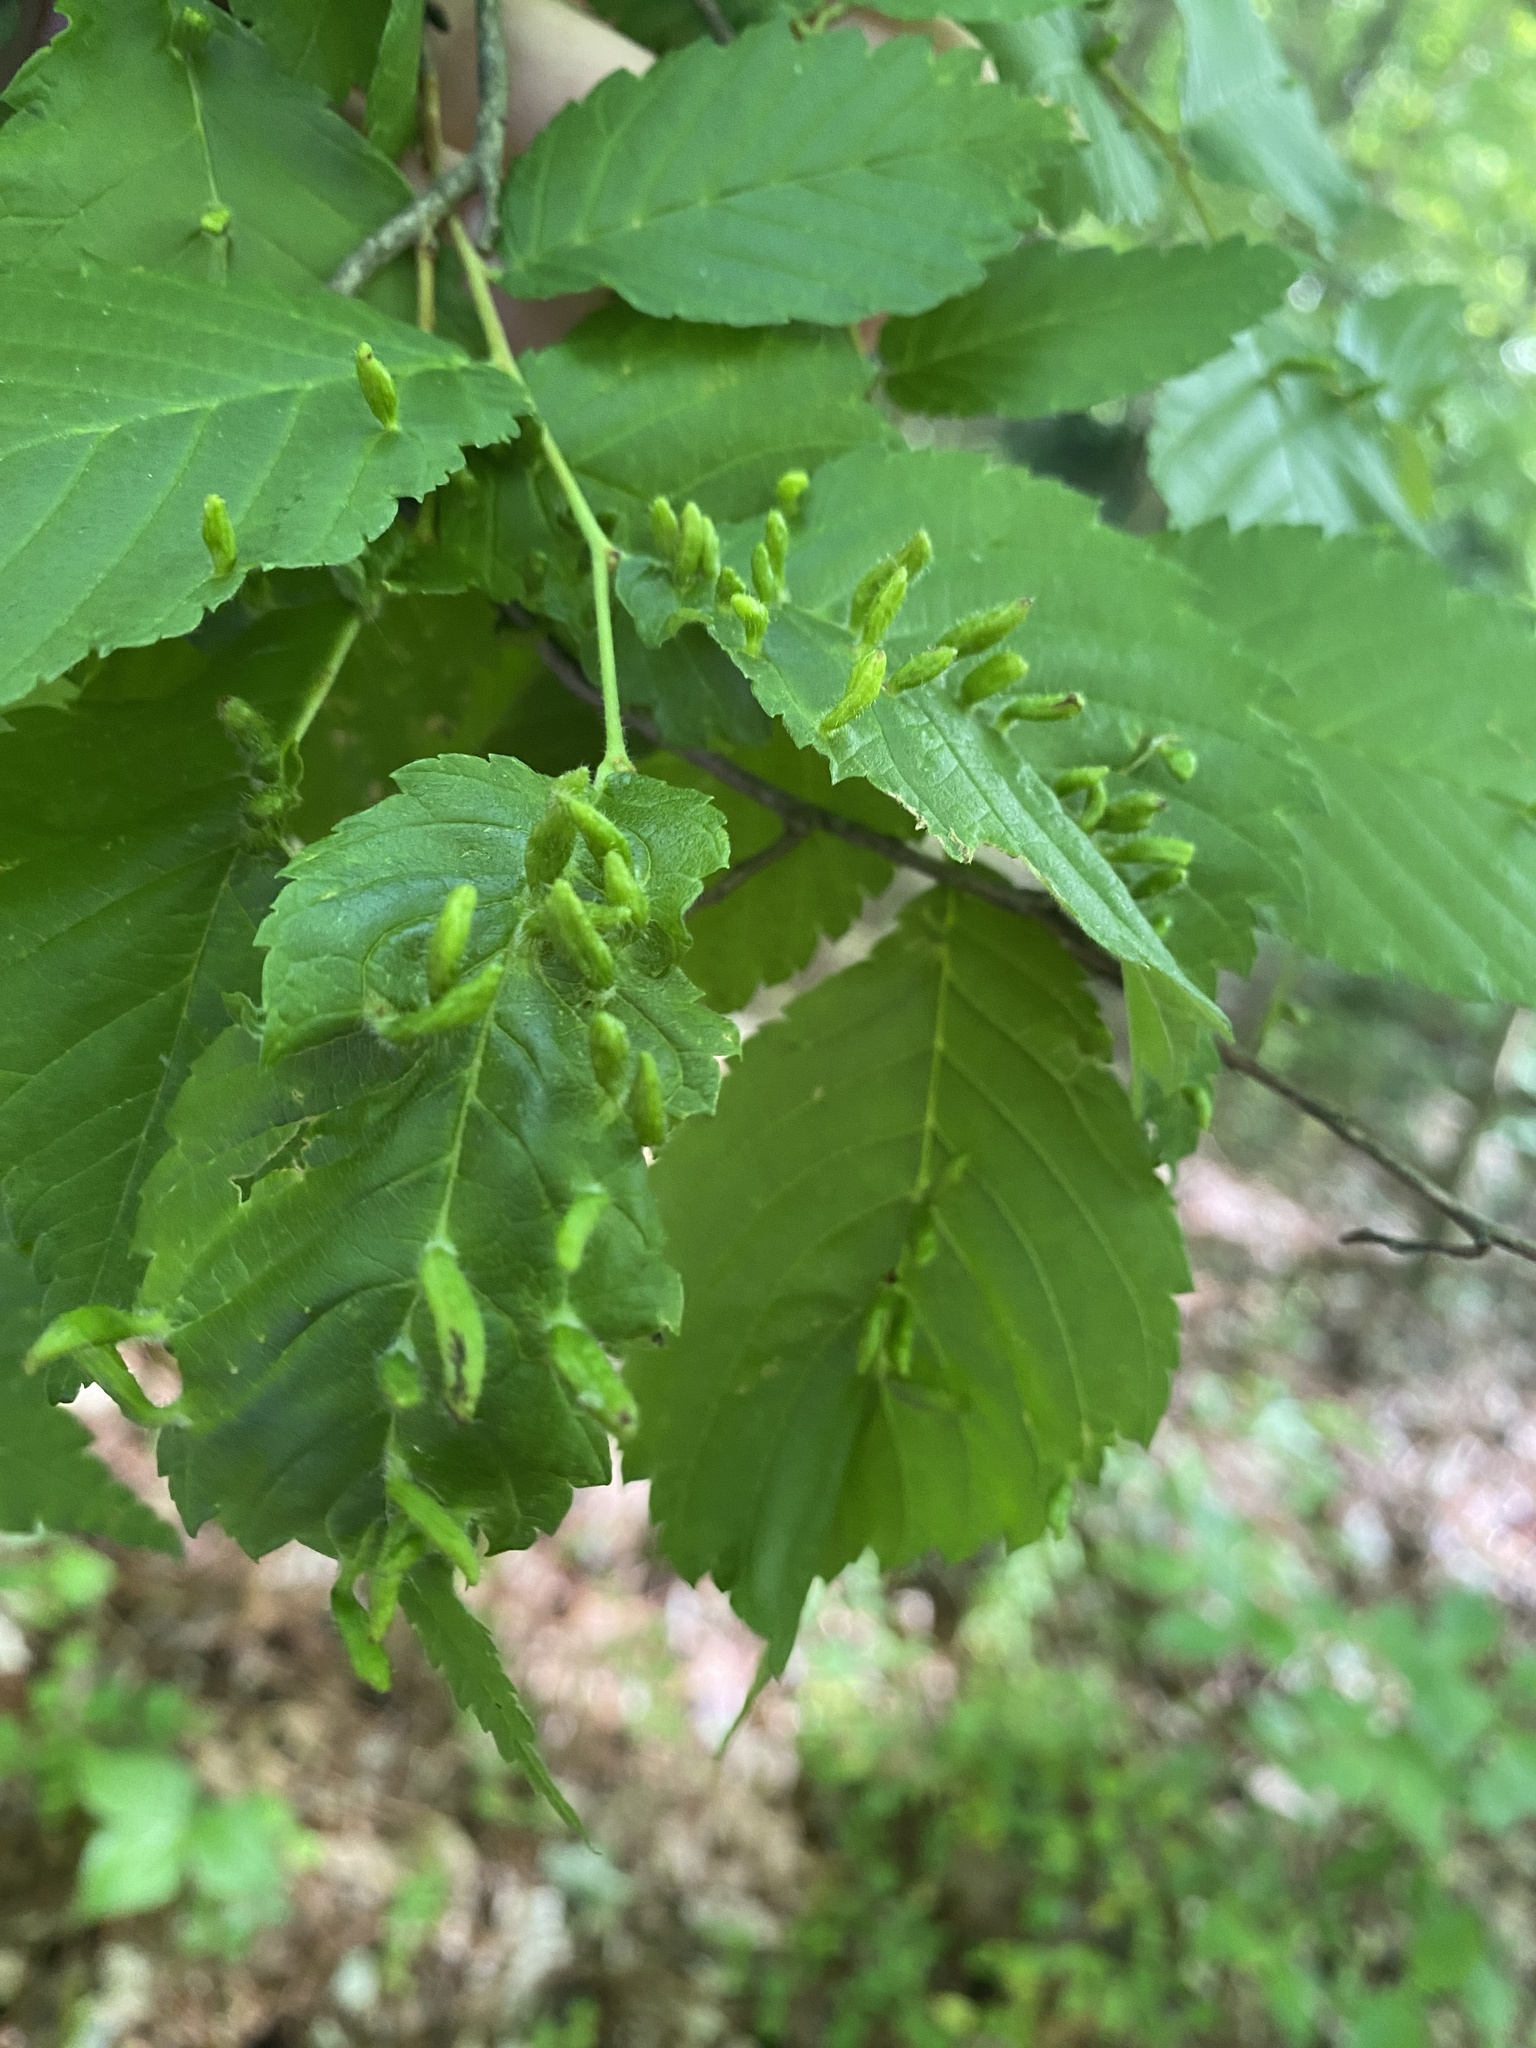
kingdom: Animalia
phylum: Arthropoda
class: Arachnida
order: Trombidiformes
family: Eriophyidae
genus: Aceria
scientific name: Aceria
